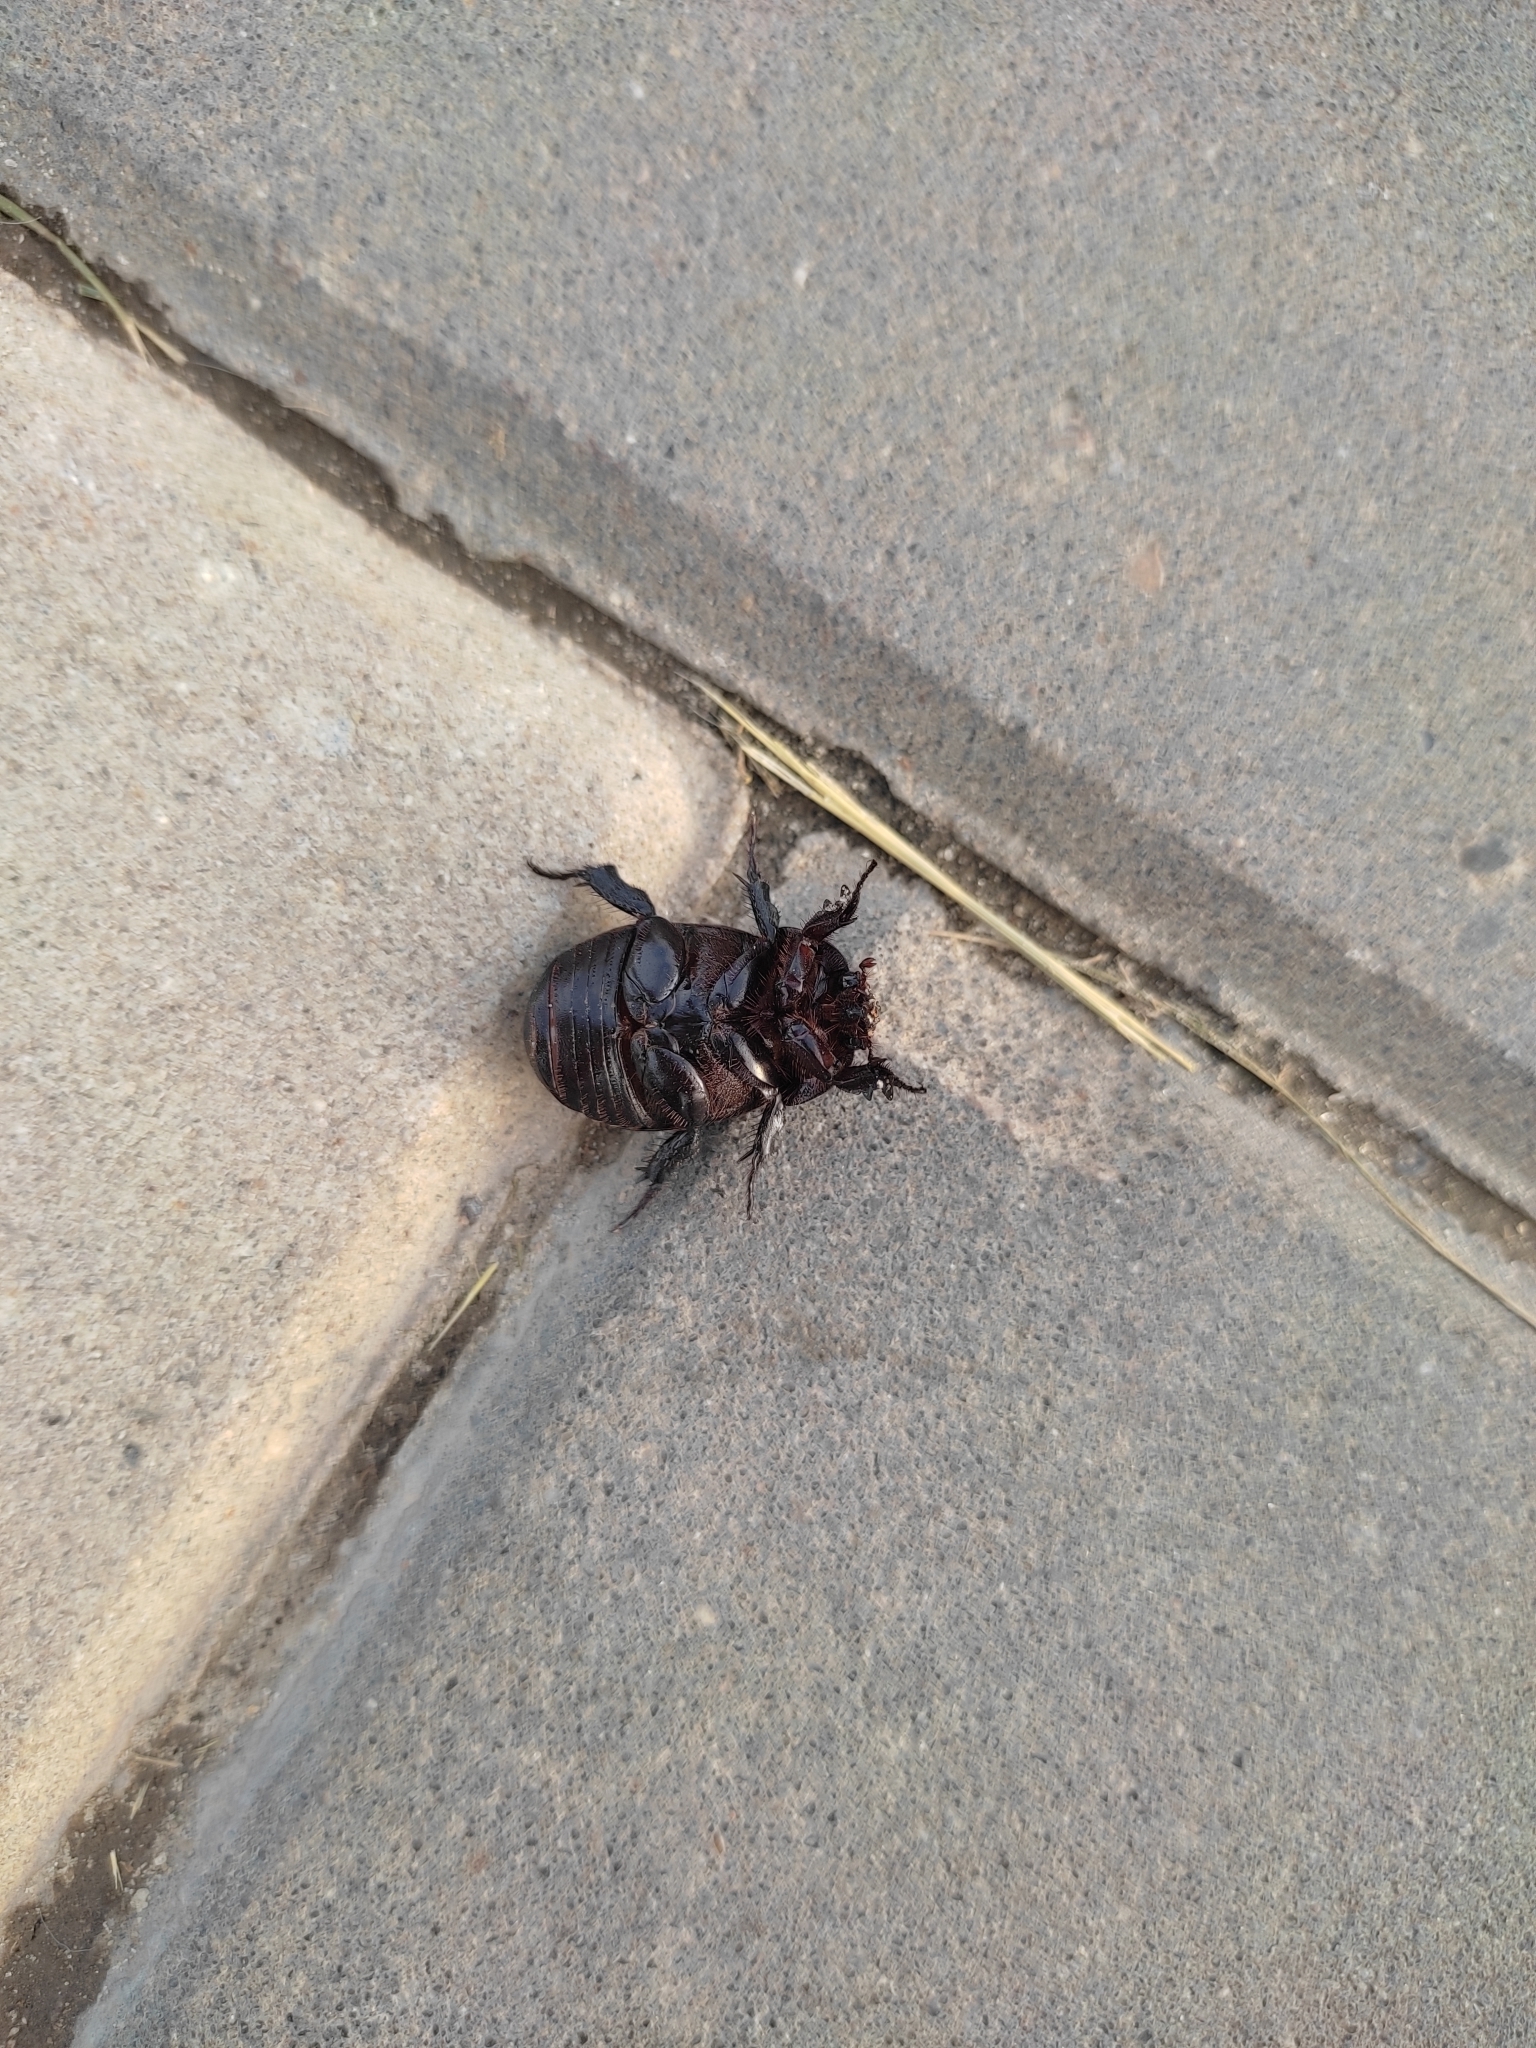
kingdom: Animalia
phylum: Arthropoda
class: Insecta
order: Coleoptera
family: Scarabaeidae
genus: Pentodon
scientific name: Pentodon idiota
